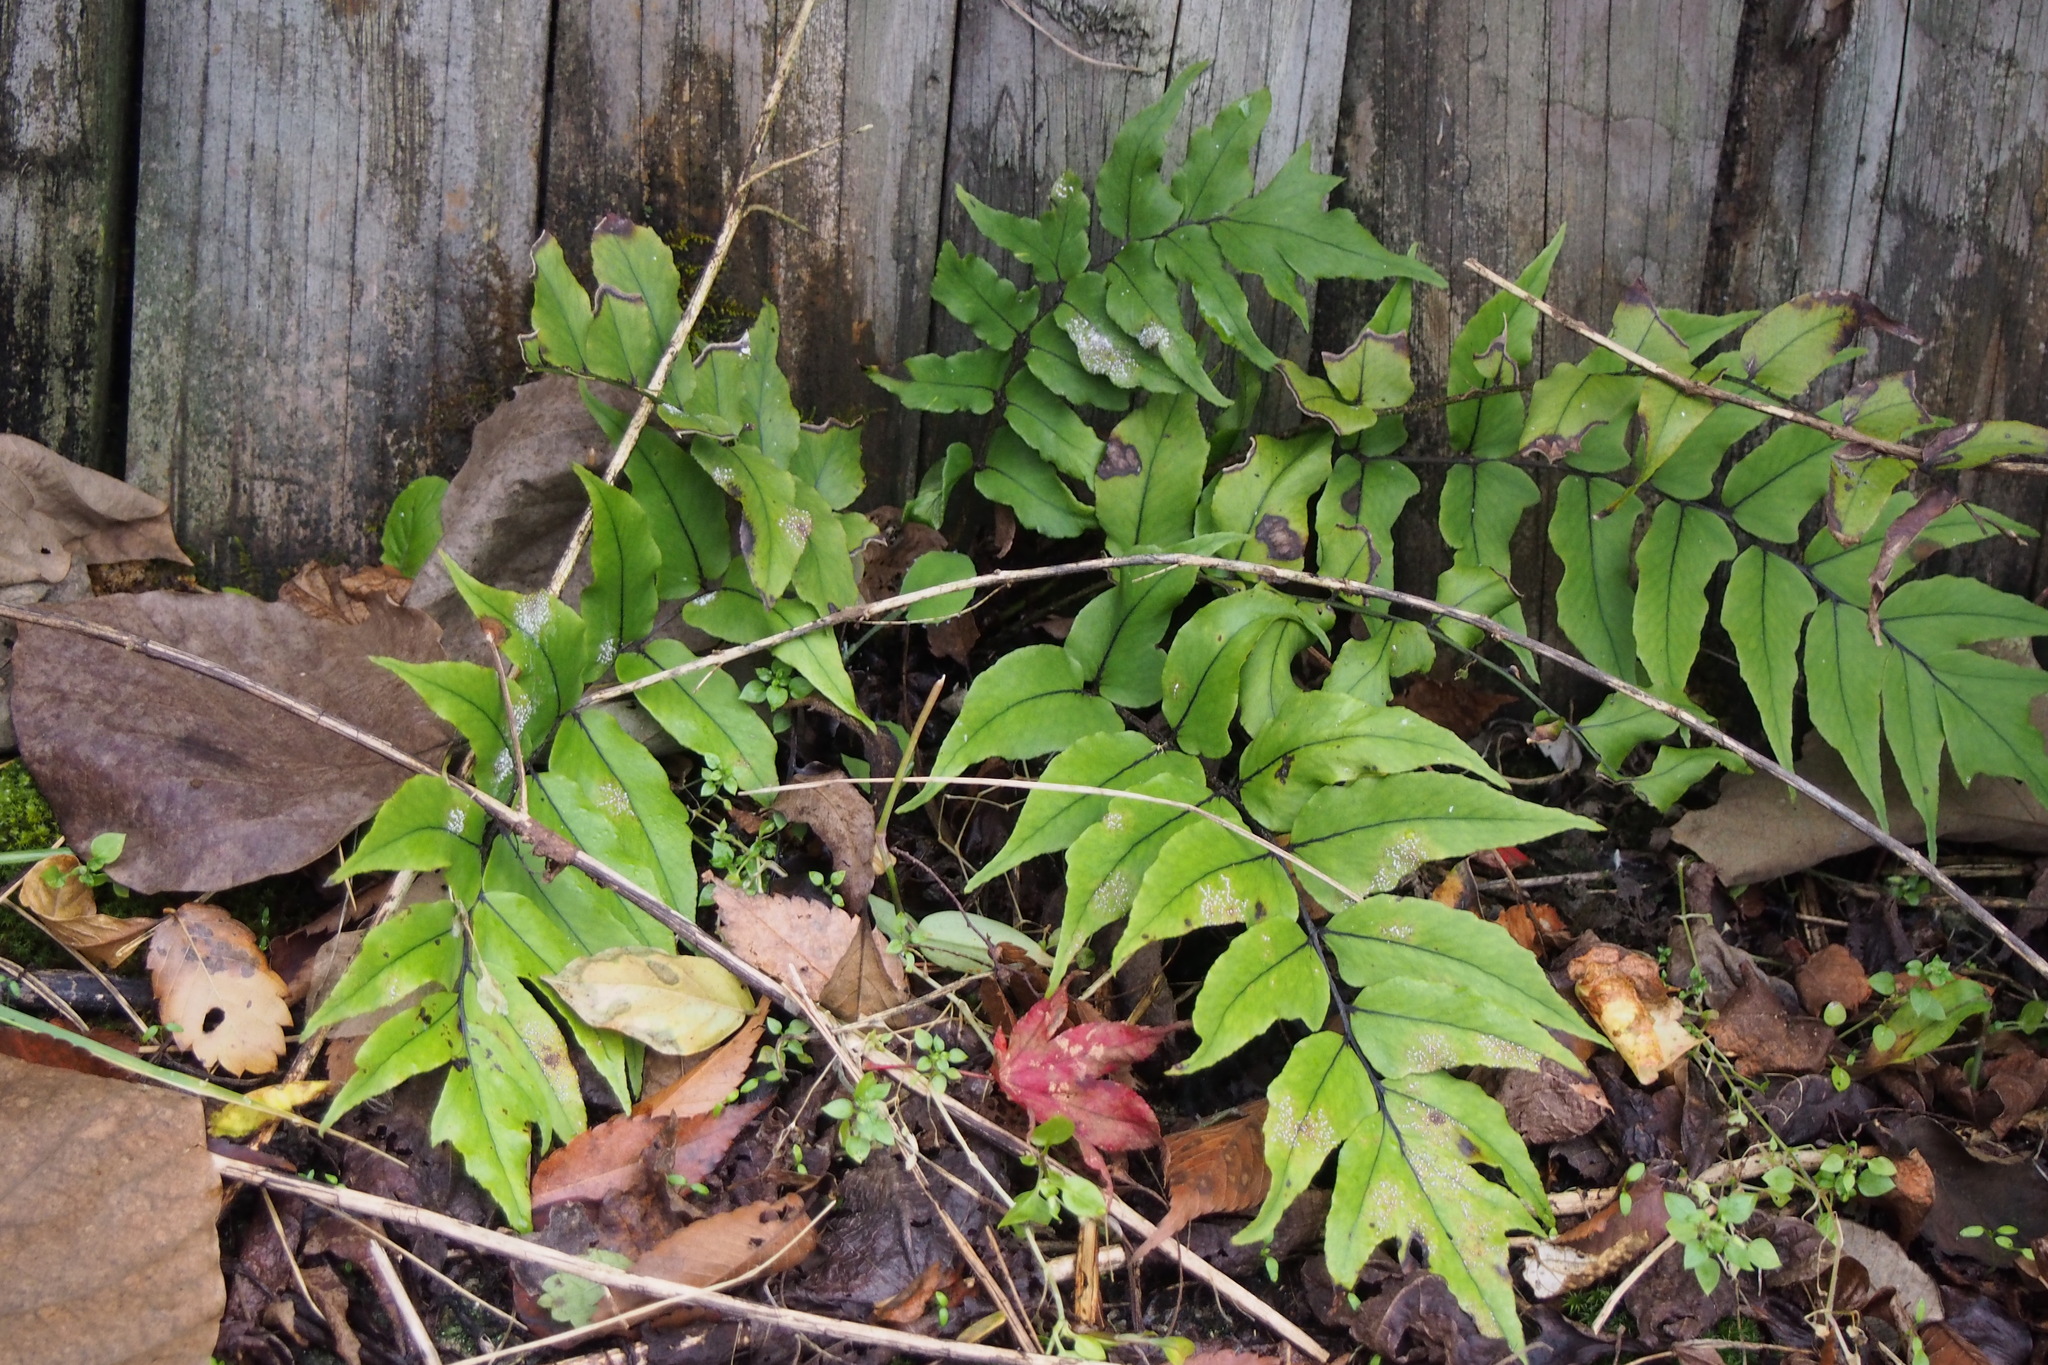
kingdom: Plantae
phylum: Tracheophyta
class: Polypodiopsida
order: Polypodiales
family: Dryopteridaceae
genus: Cyrtomium
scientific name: Cyrtomium fortunei
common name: Asian netvein hollyfern
